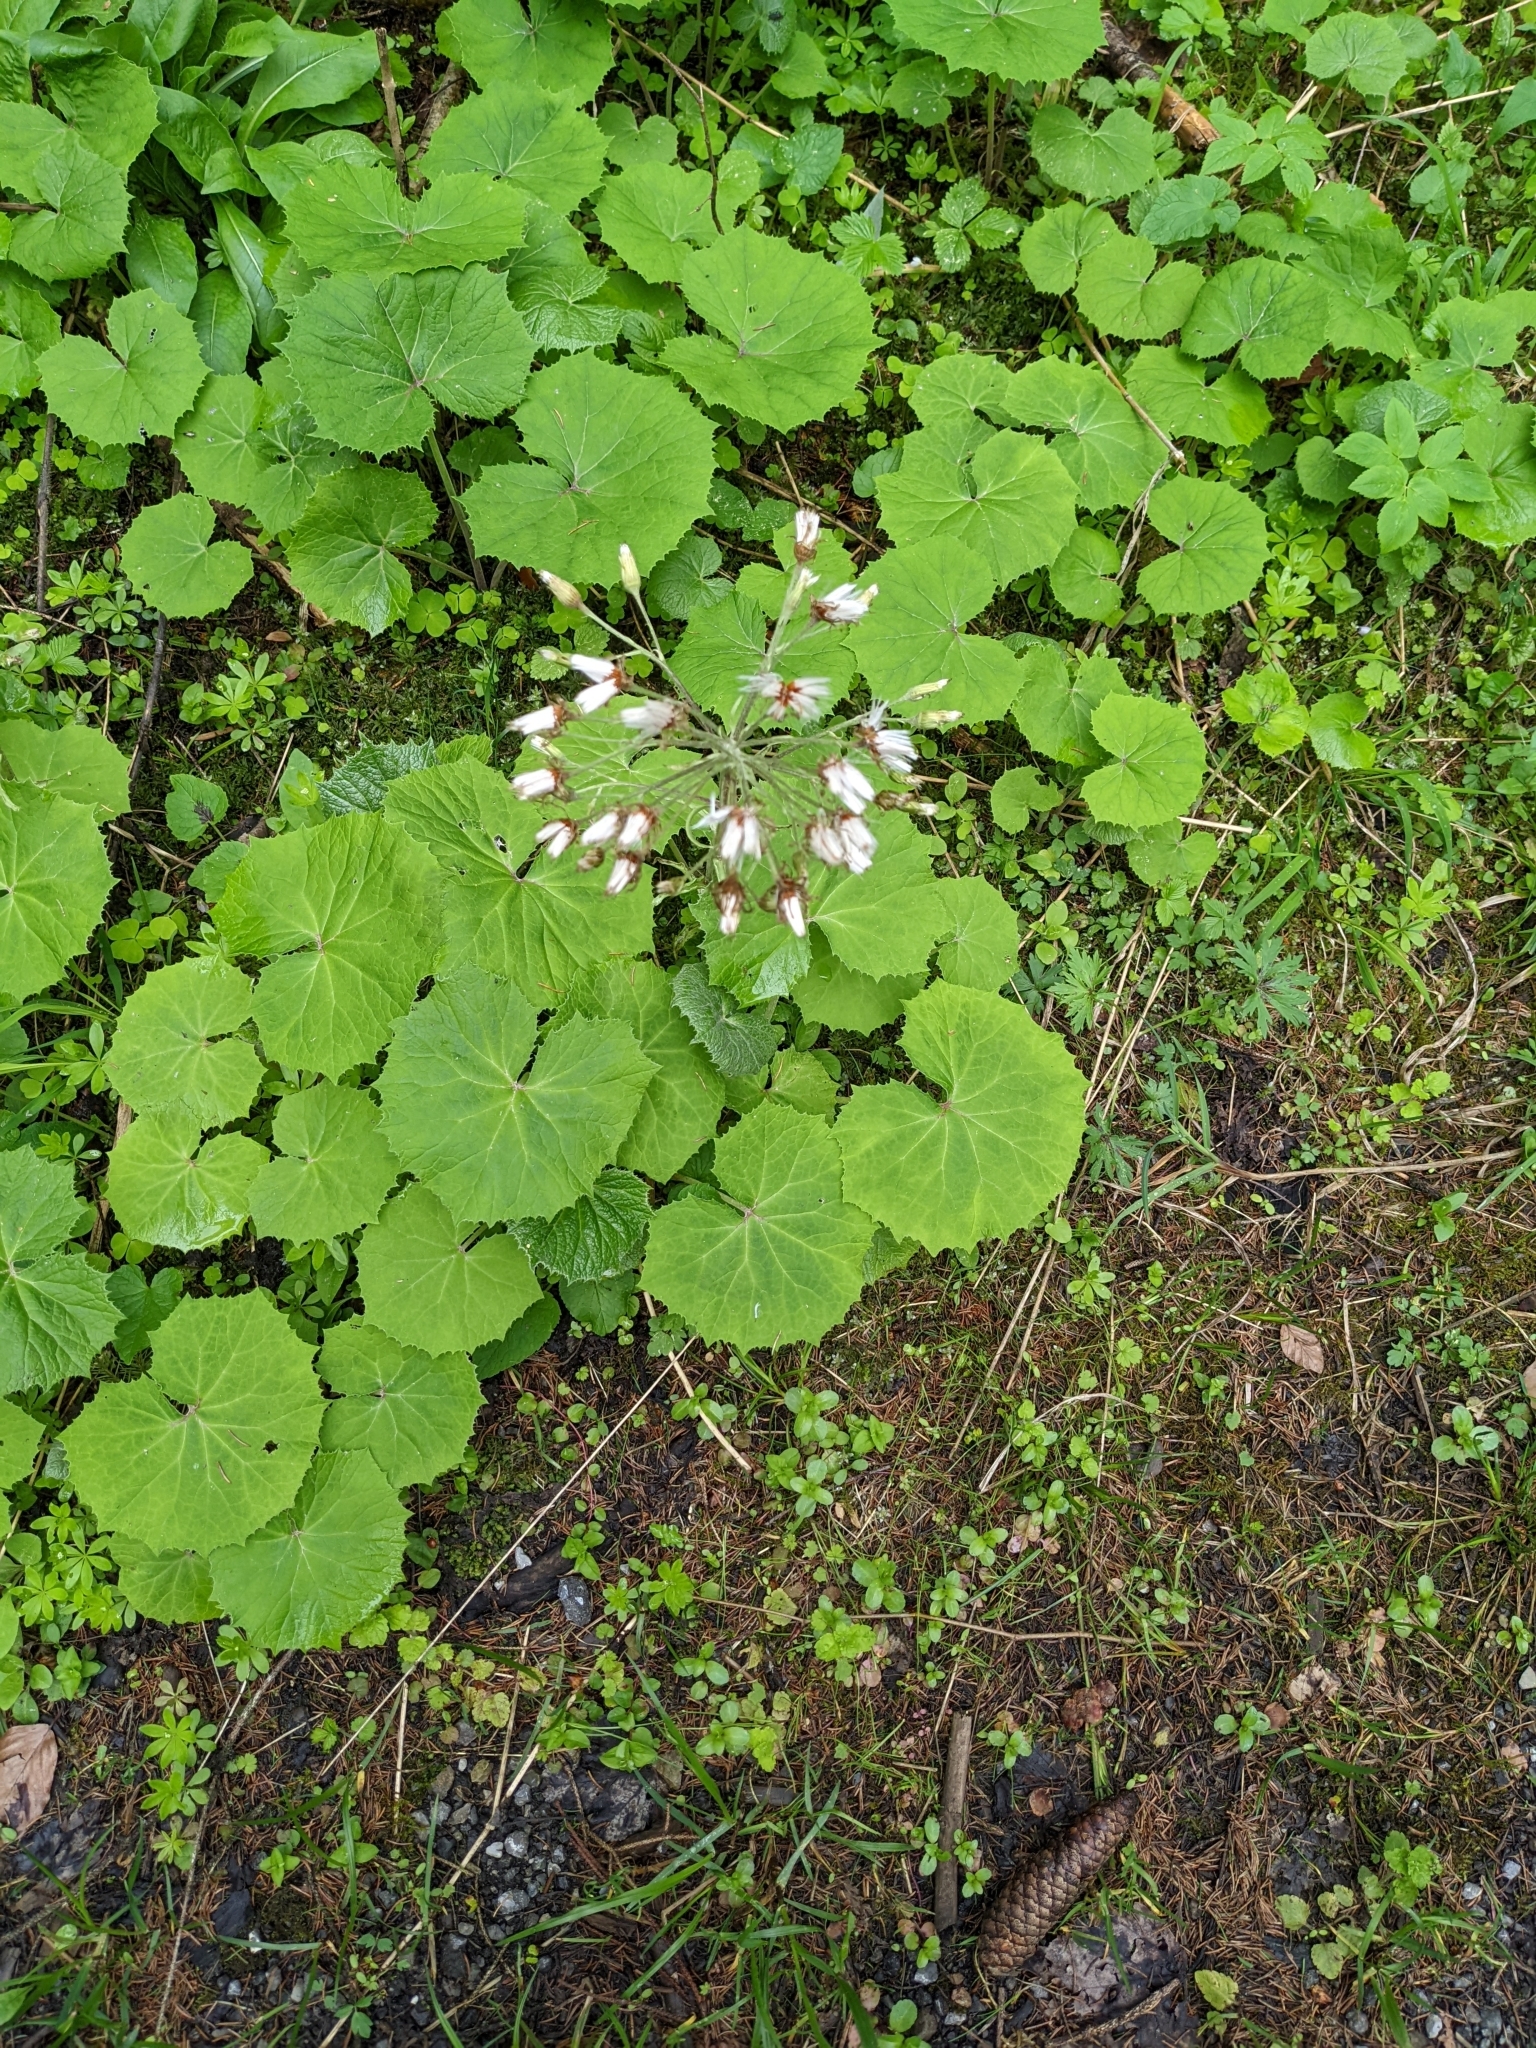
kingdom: Plantae
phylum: Tracheophyta
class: Magnoliopsida
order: Asterales
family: Asteraceae
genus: Petasites
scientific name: Petasites albus
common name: White butterbur
